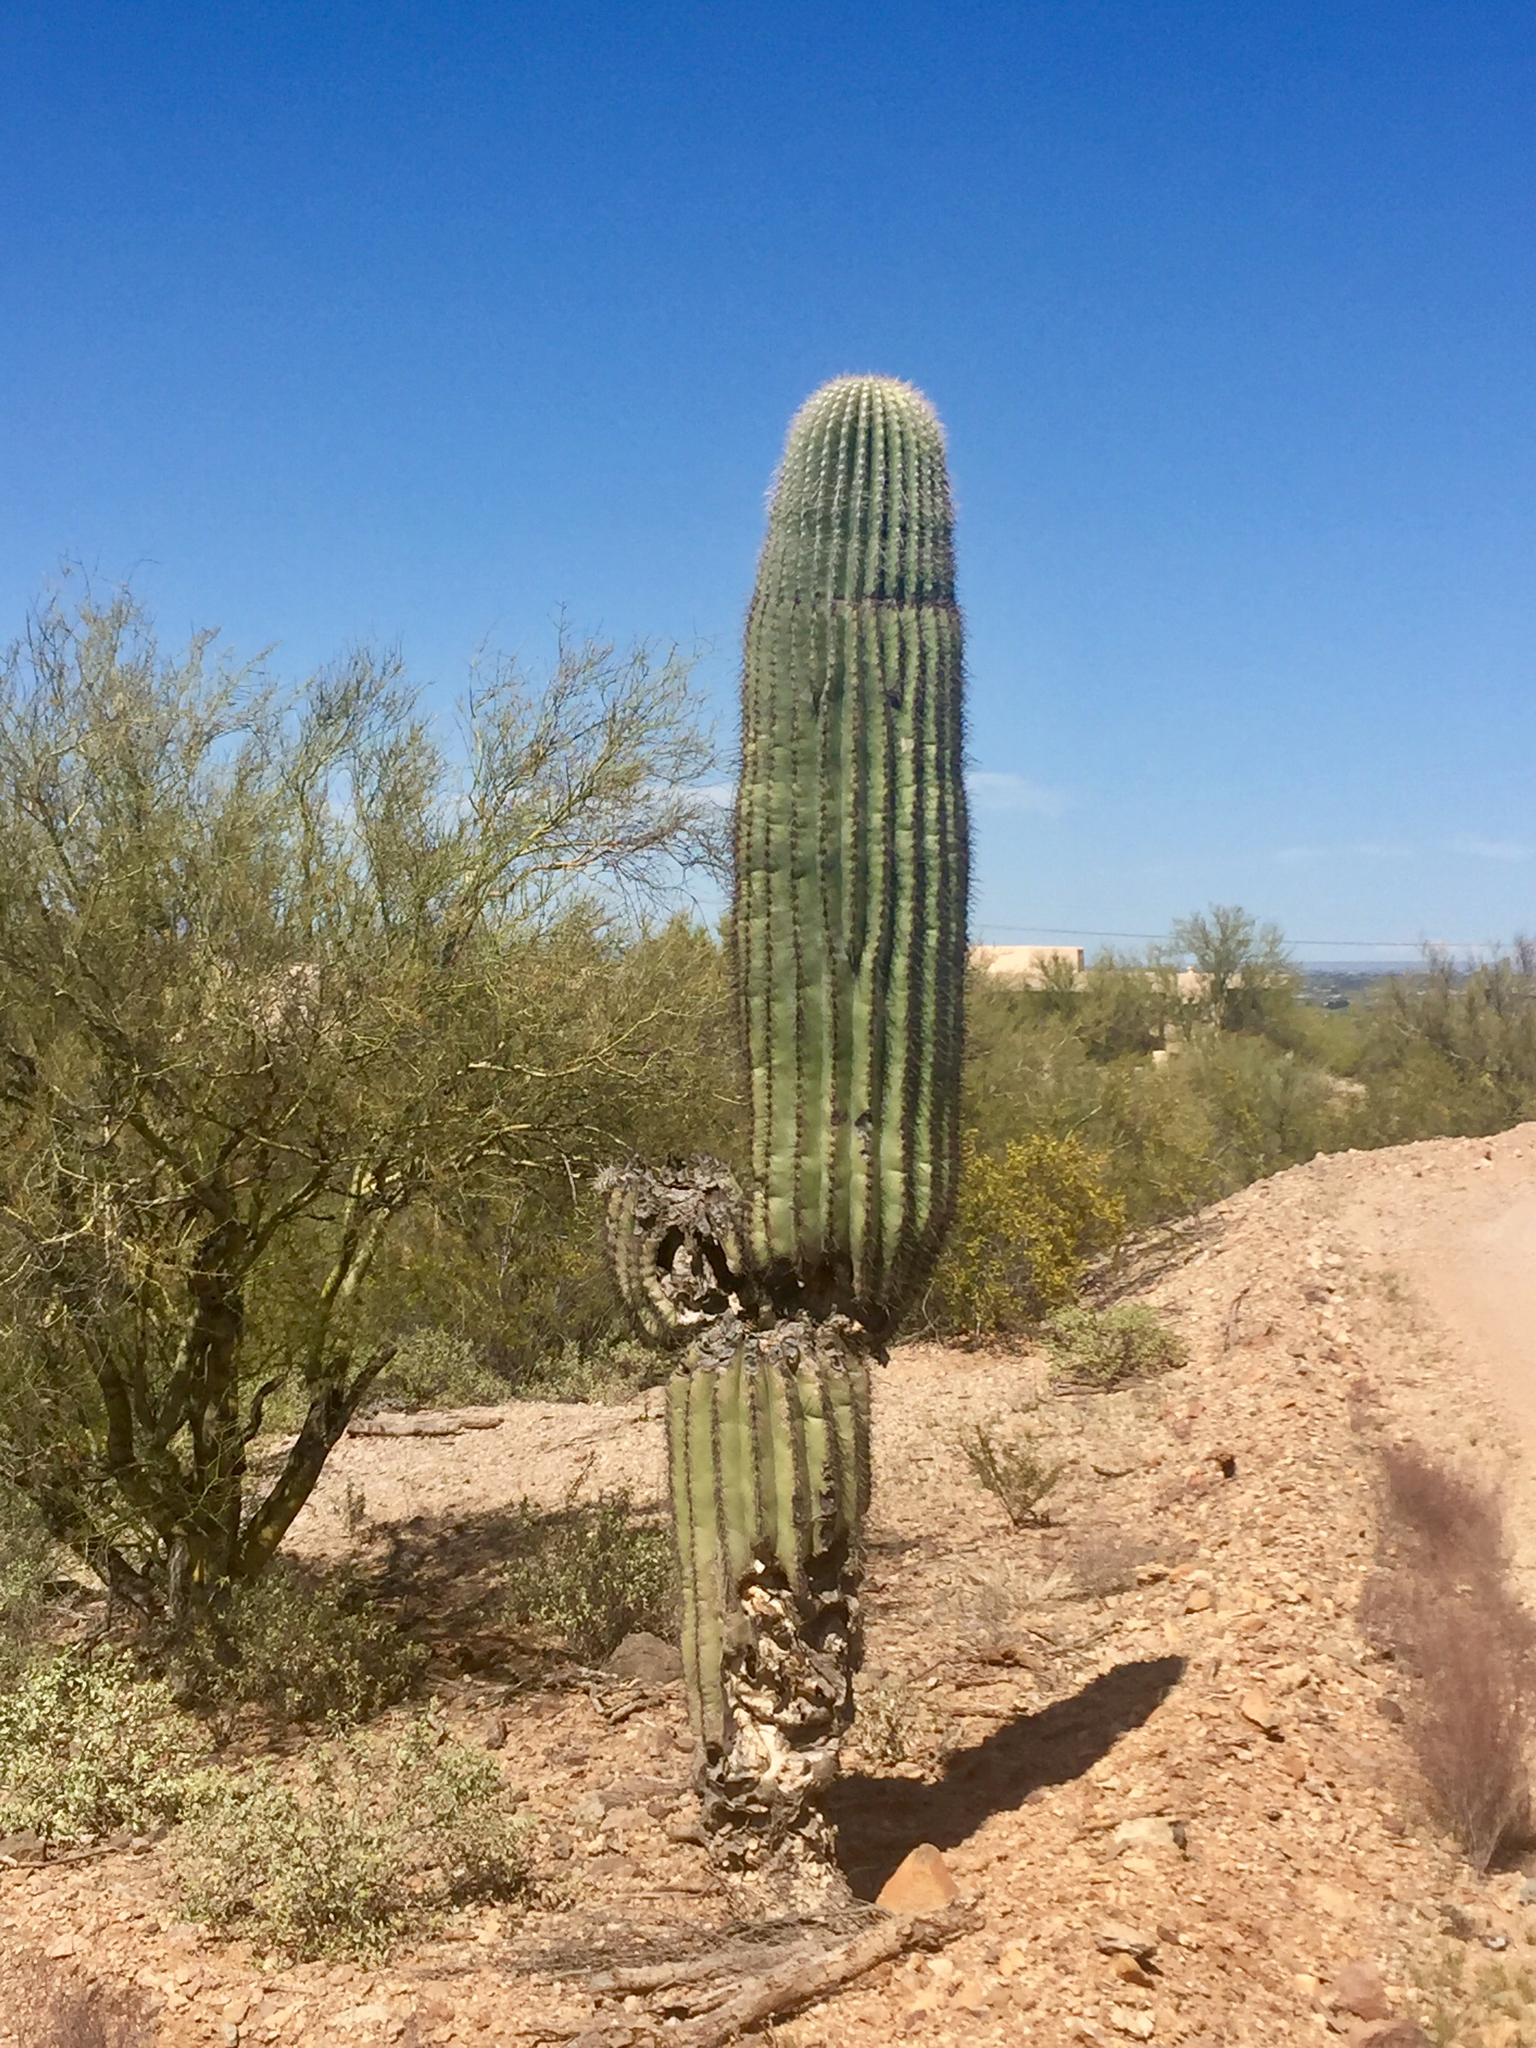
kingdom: Plantae
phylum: Tracheophyta
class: Magnoliopsida
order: Caryophyllales
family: Cactaceae
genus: Carnegiea
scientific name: Carnegiea gigantea
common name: Saguaro
